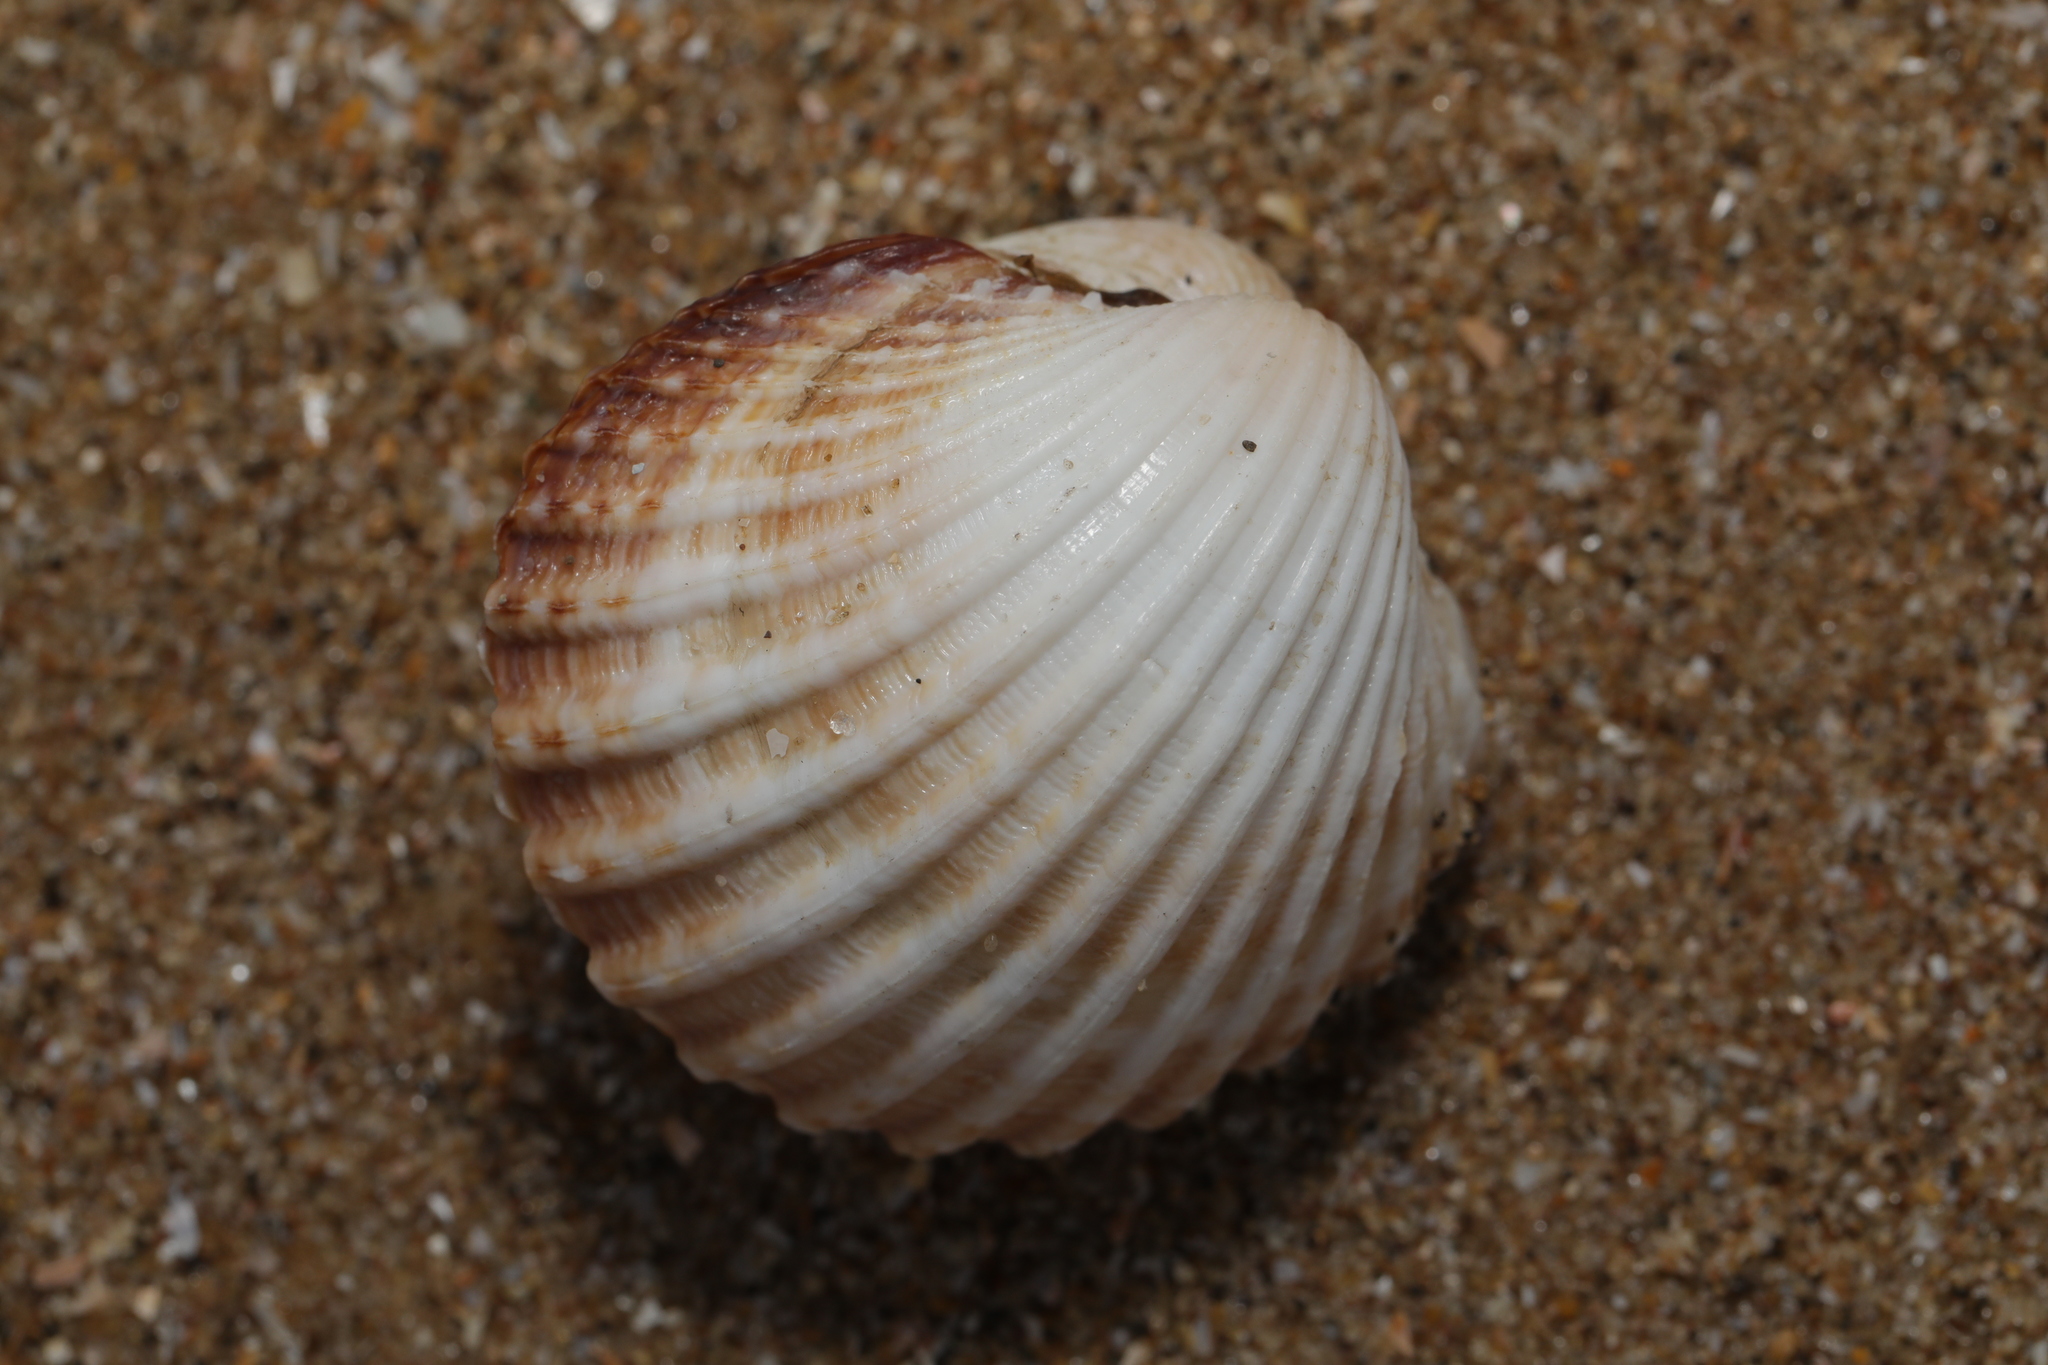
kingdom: Animalia
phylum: Mollusca
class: Bivalvia
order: Cardiida
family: Cardiidae
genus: Acanthocardia
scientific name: Acanthocardia echinata
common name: Prickly cockle
